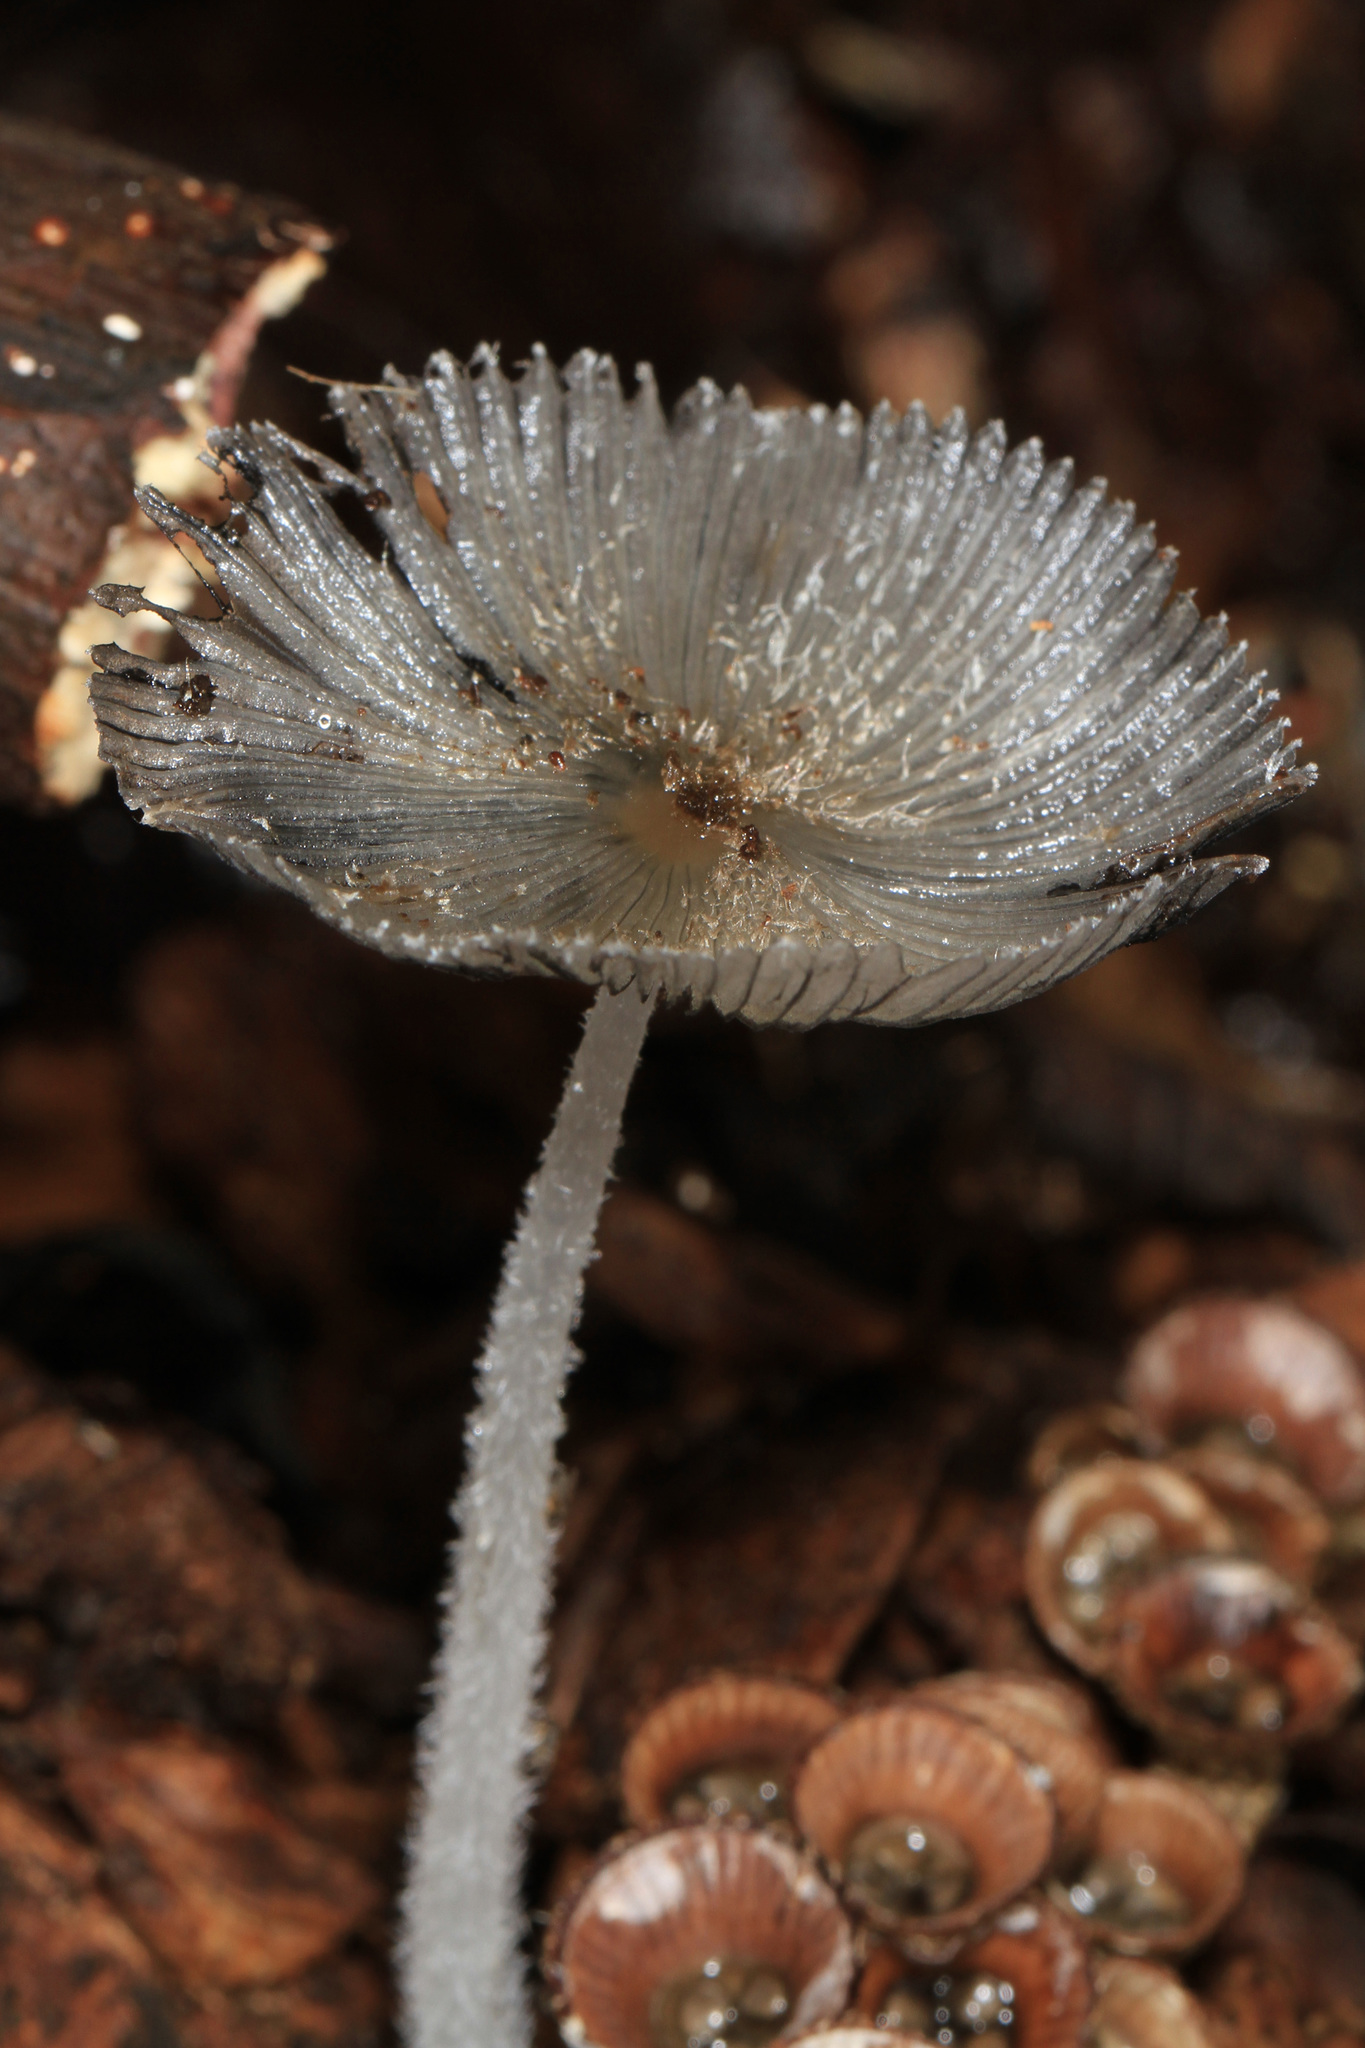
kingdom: Fungi
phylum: Basidiomycota
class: Agaricomycetes
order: Agaricales
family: Psathyrellaceae
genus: Parasola
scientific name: Parasola plicatilis
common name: Pleated inkcap
